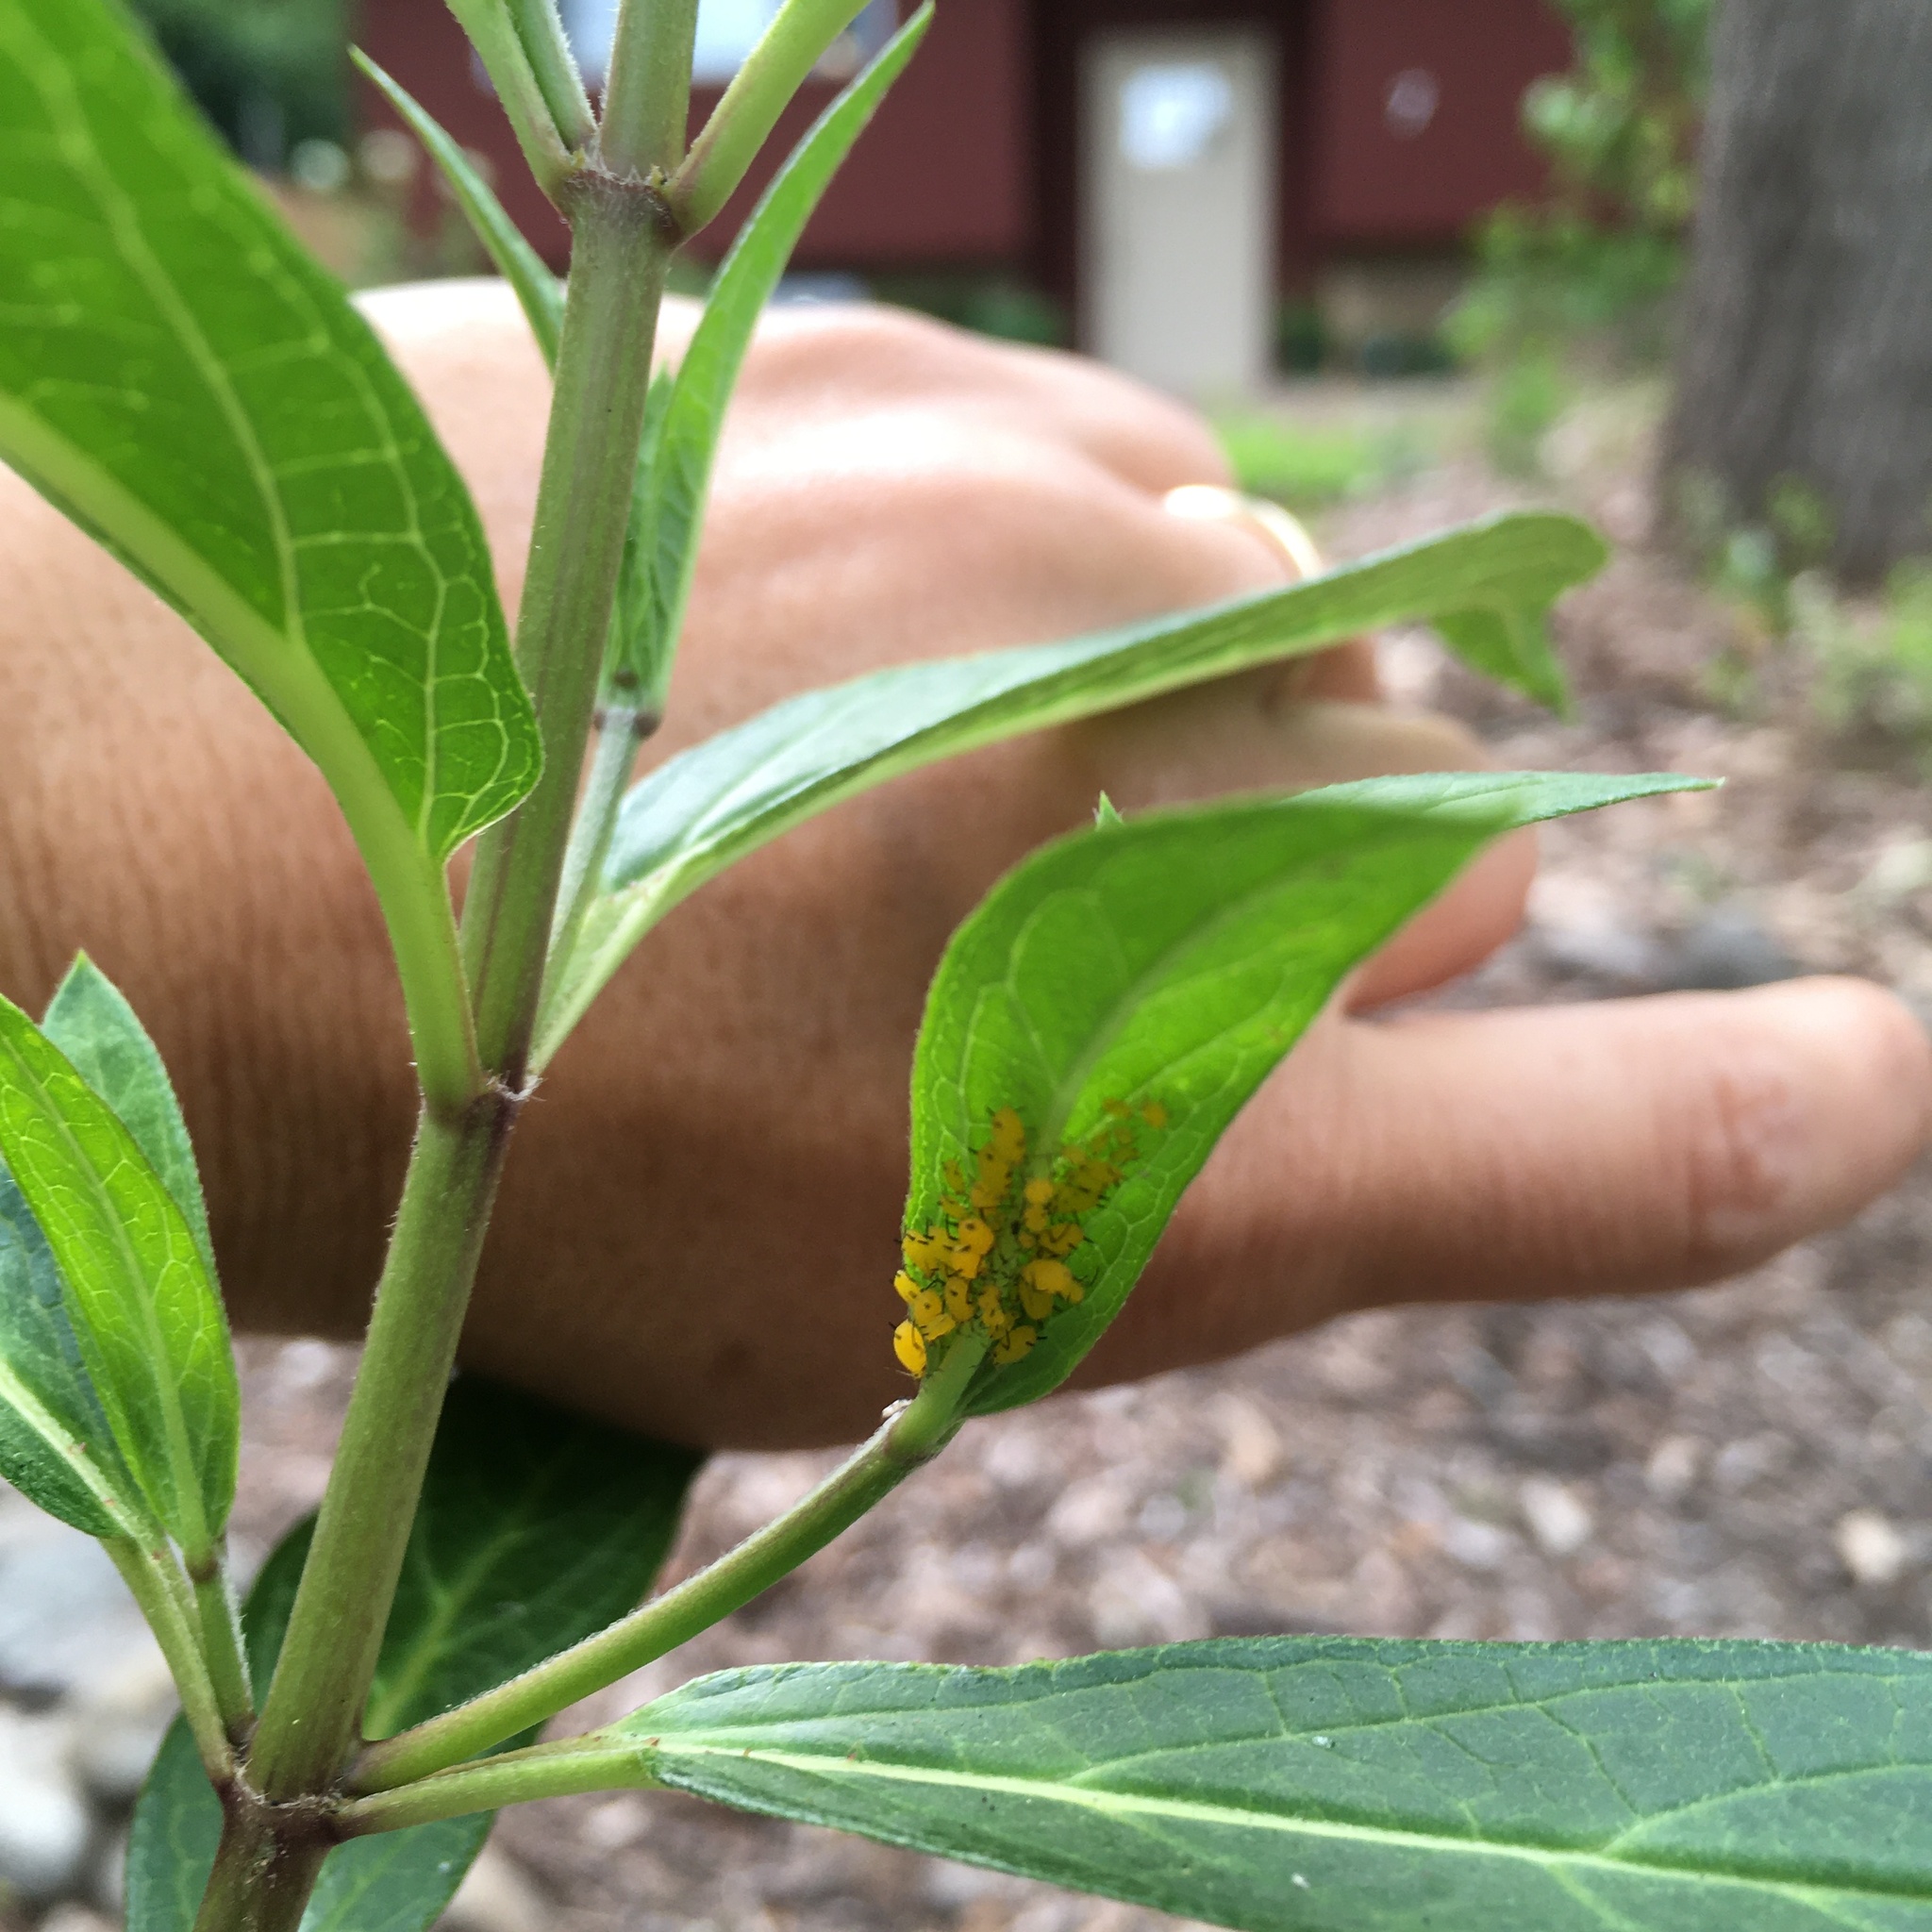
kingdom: Animalia
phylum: Arthropoda
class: Insecta
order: Hemiptera
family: Aphididae
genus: Aphis
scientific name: Aphis nerii
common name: Oleander aphid
